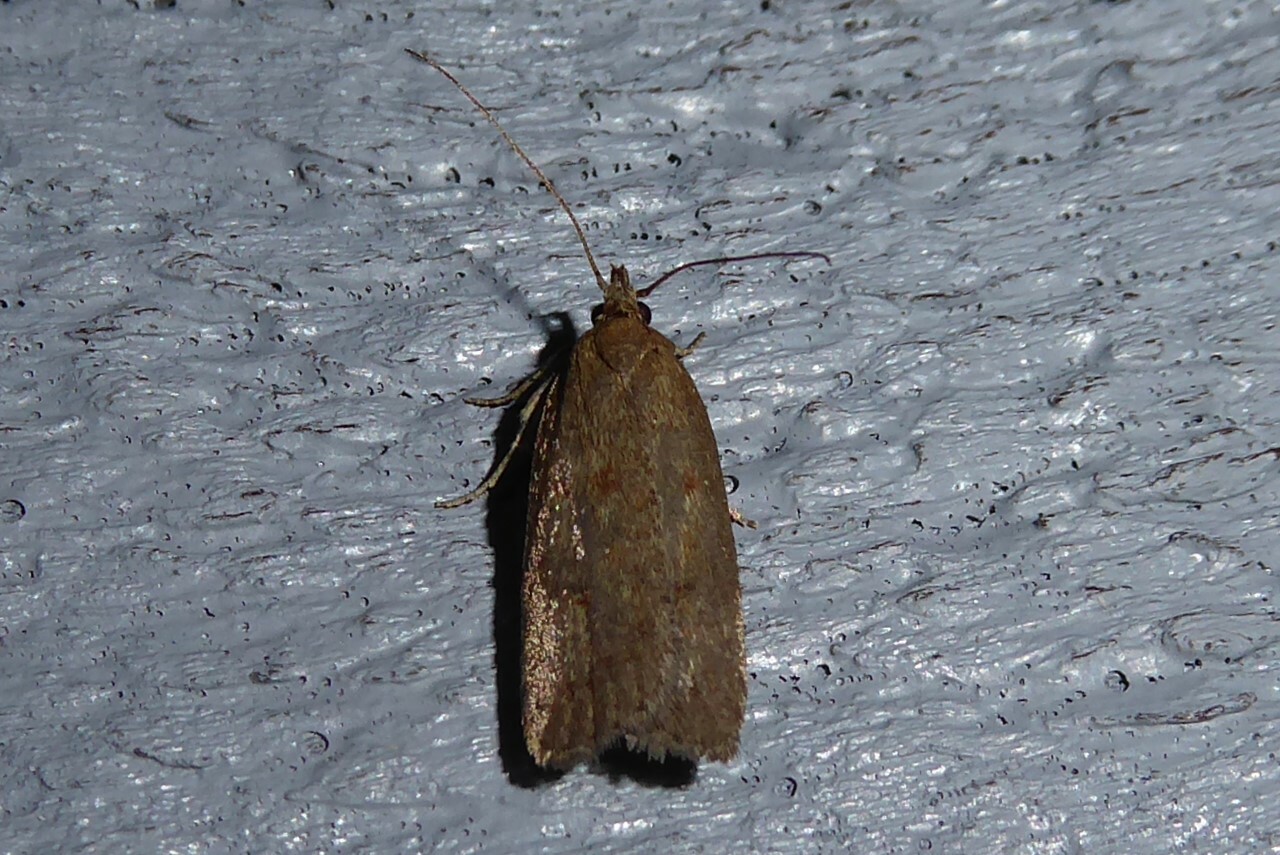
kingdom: Animalia
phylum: Arthropoda
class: Insecta
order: Lepidoptera
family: Depressariidae
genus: Phaeosaces
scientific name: Phaeosaces apocrypta
